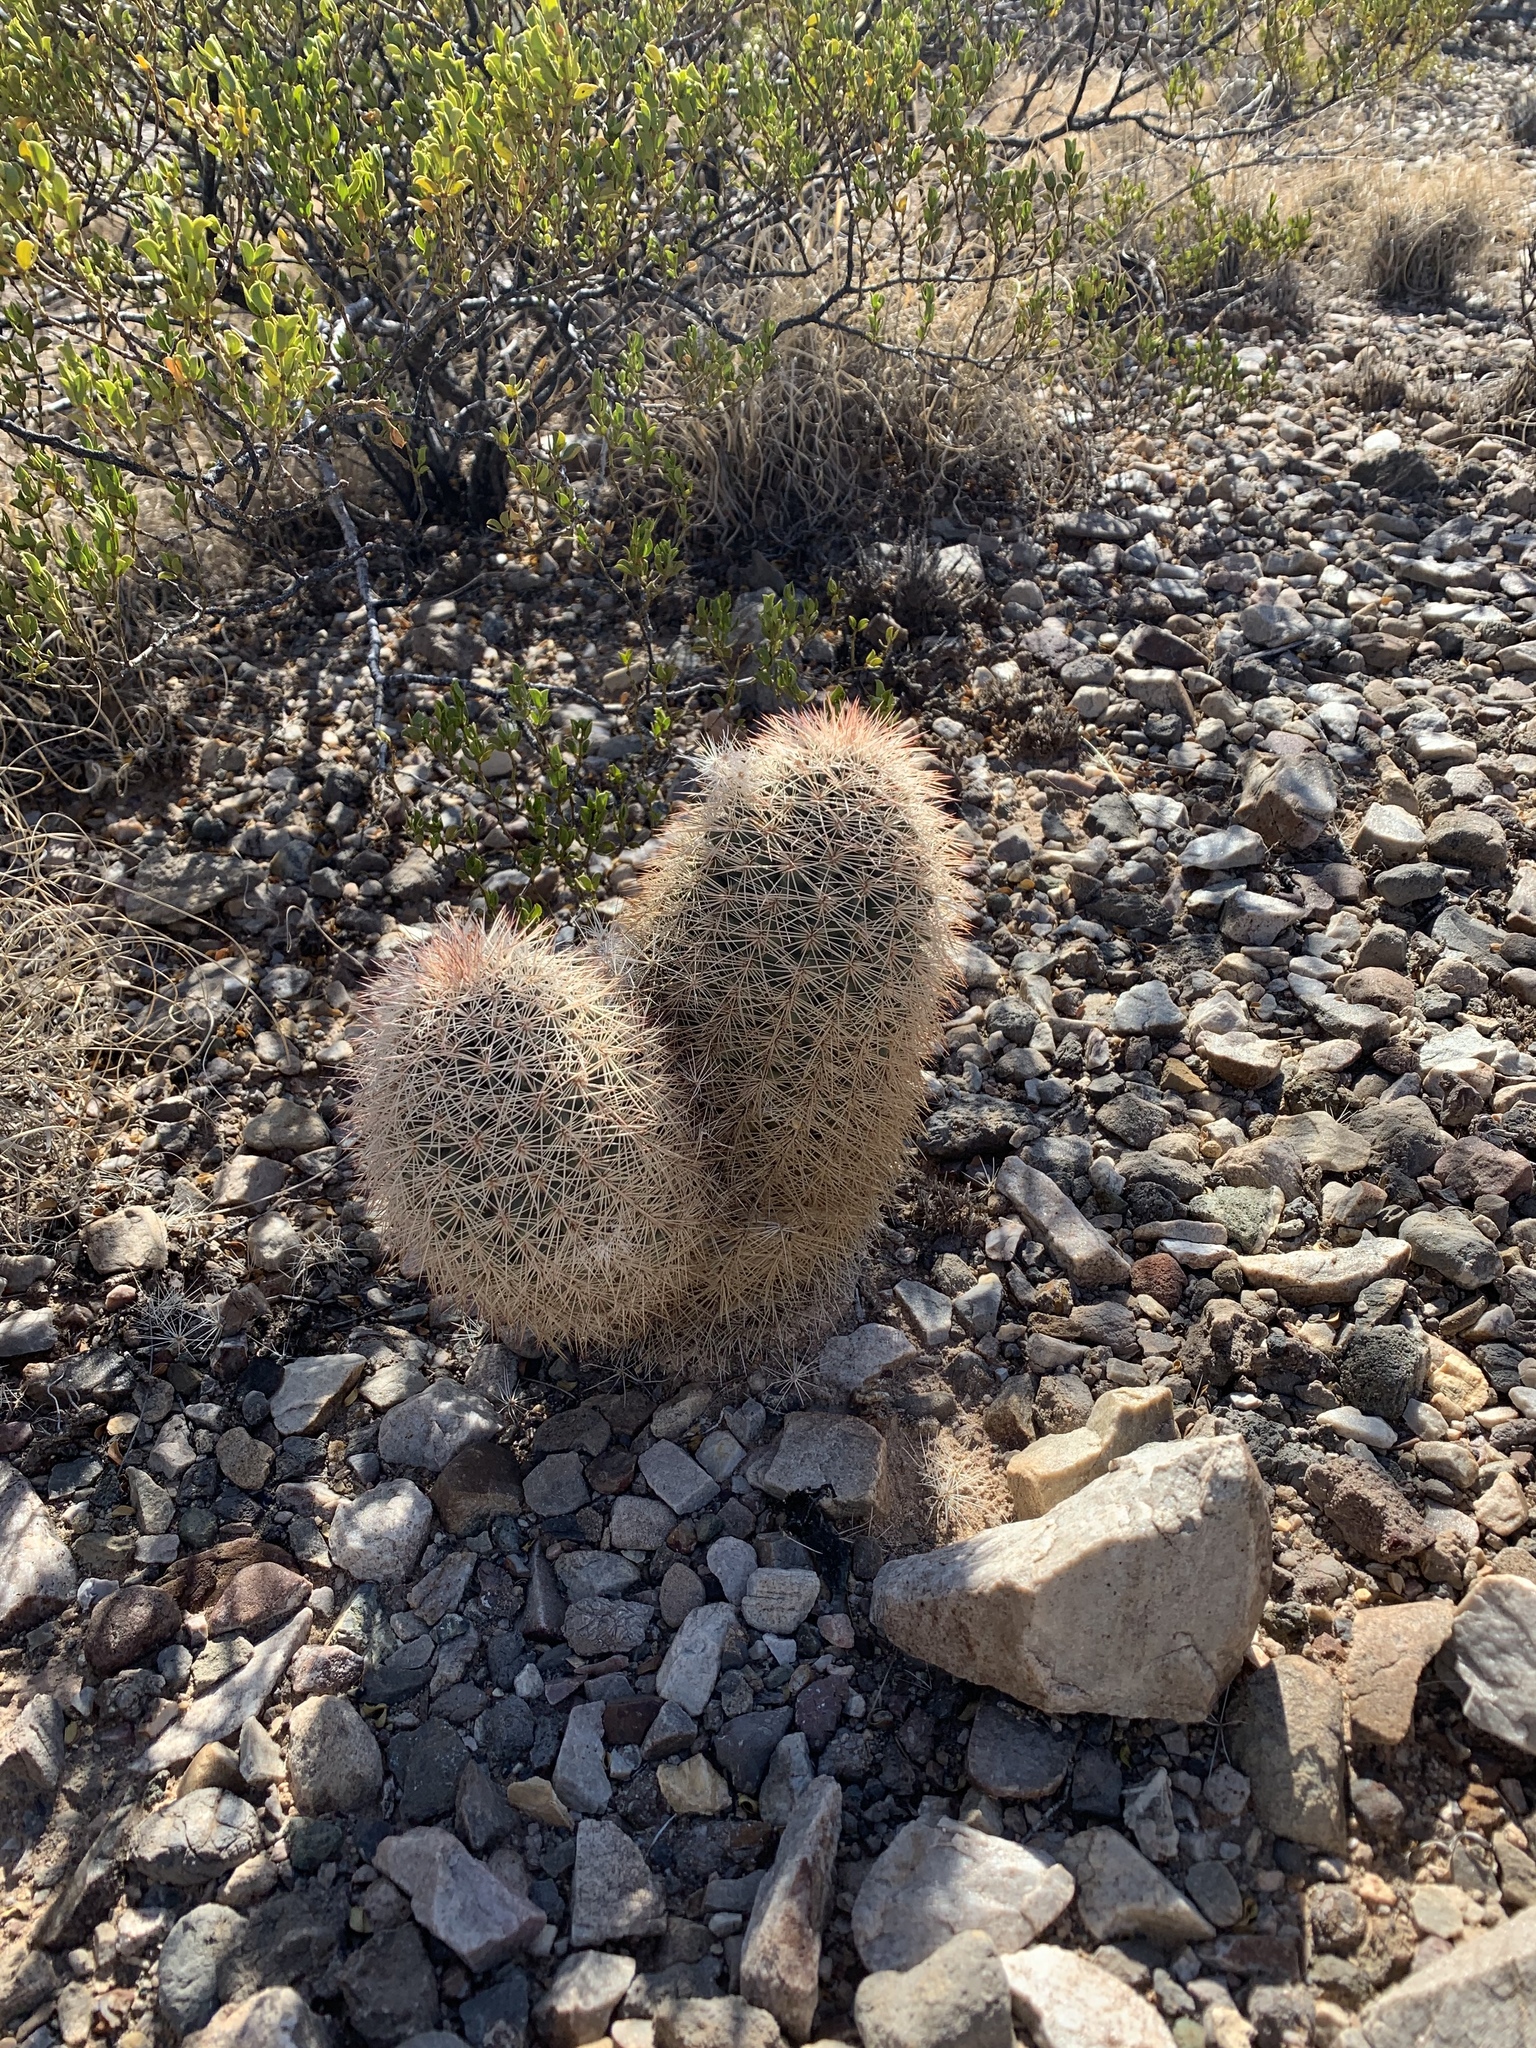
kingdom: Plantae
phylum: Tracheophyta
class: Magnoliopsida
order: Caryophyllales
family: Cactaceae
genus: Echinocereus
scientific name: Echinocereus dasyacanthus
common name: Spiny hedgehog cactus
